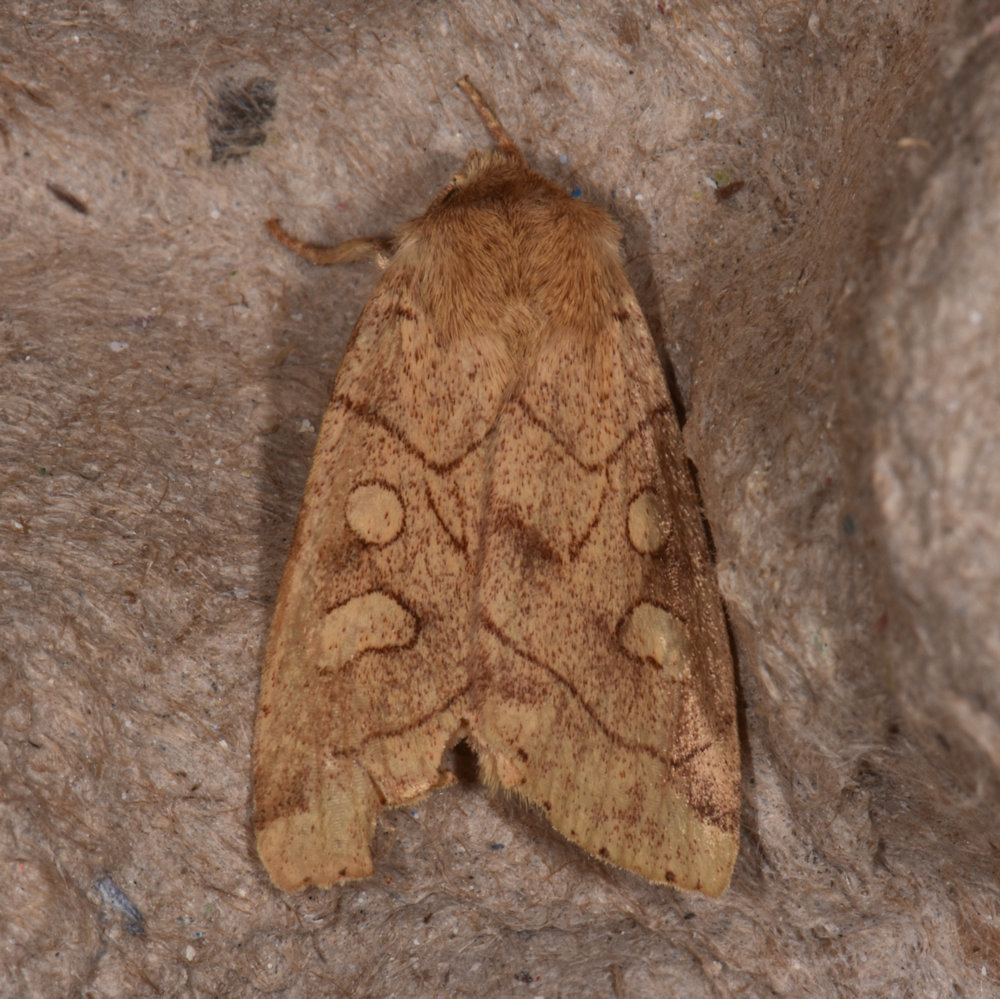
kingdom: Animalia
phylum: Arthropoda
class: Insecta
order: Lepidoptera
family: Noctuidae
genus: Enargia
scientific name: Enargia decolor
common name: Aspen twoleaf tier moth
